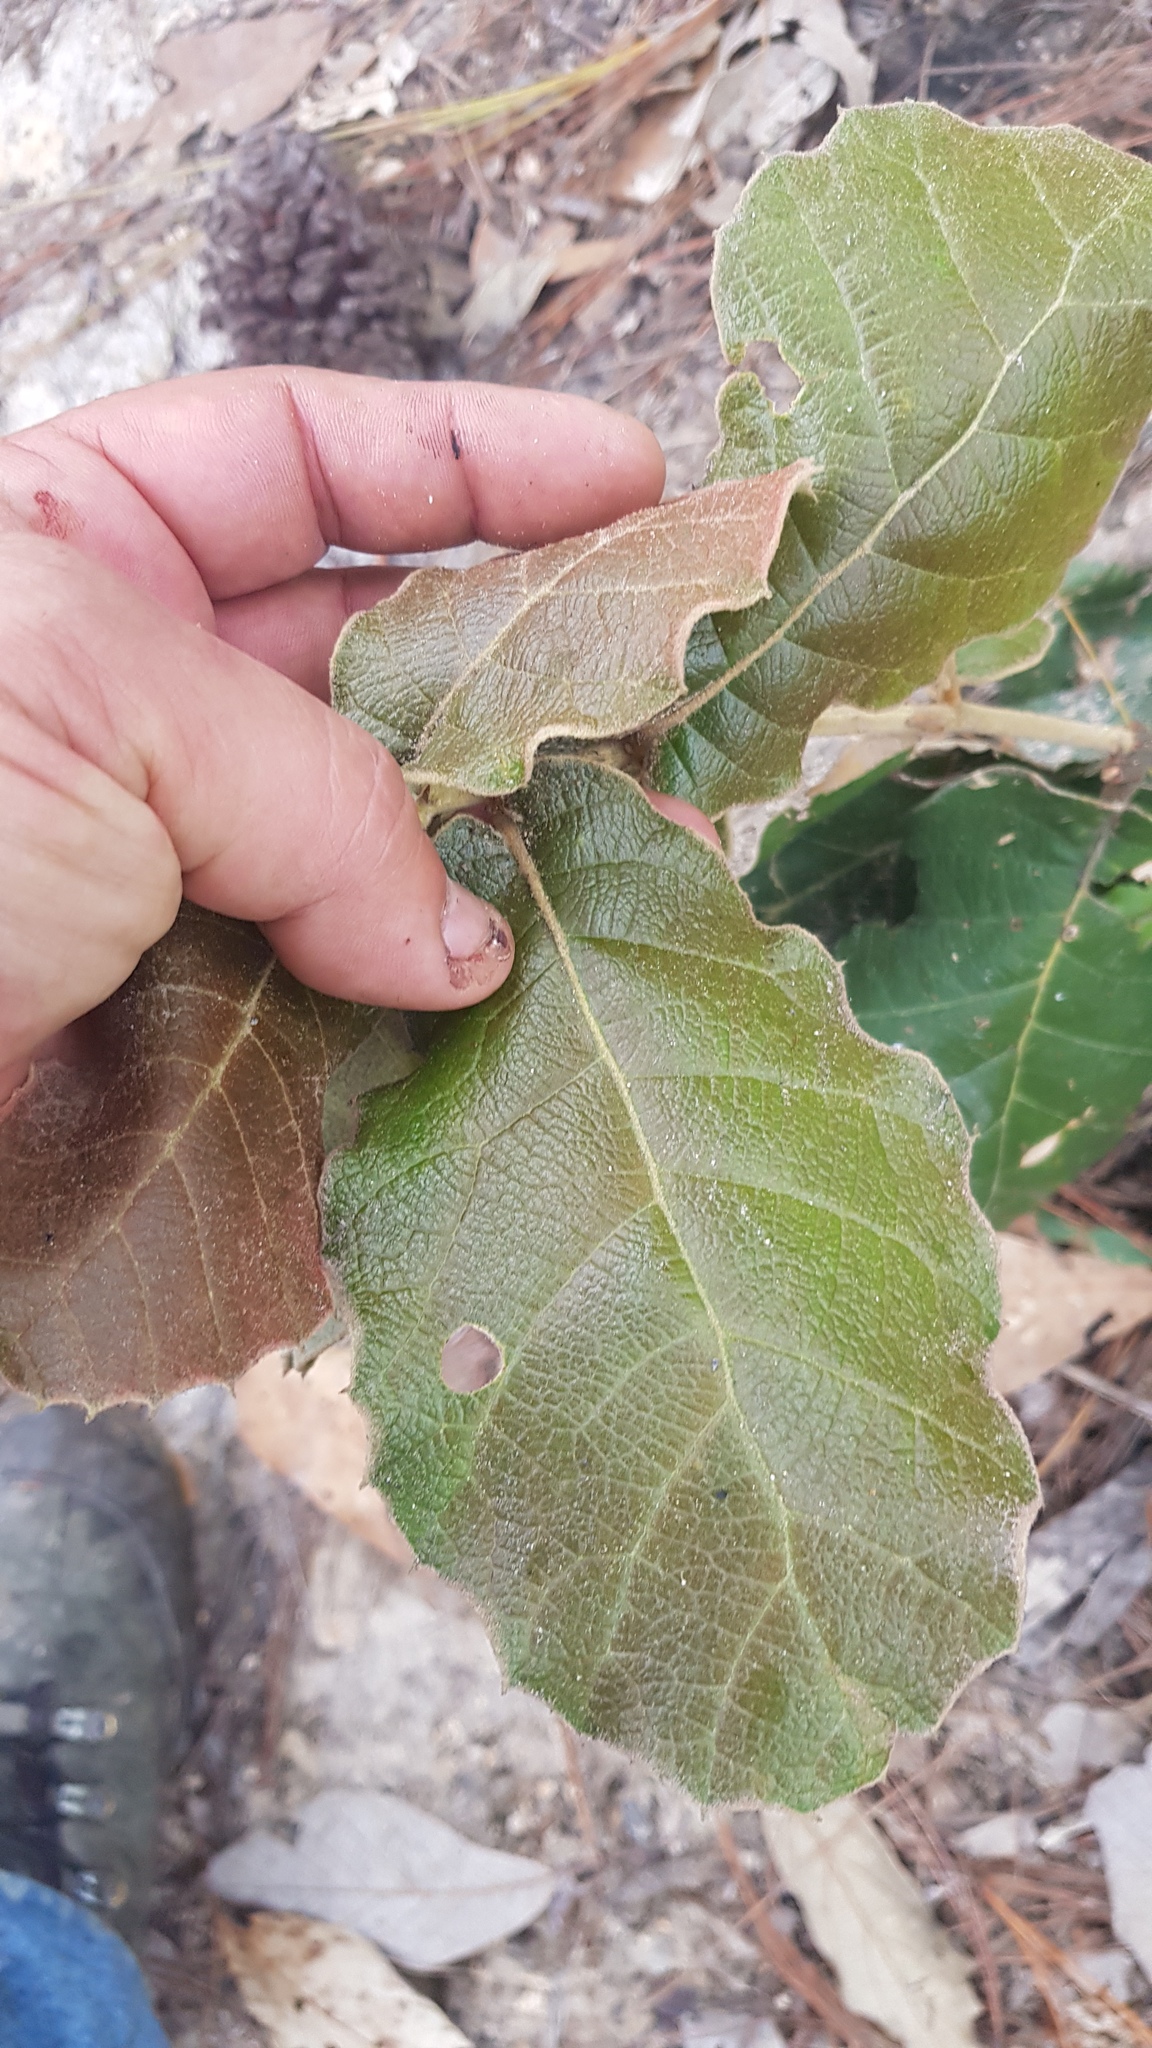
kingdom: Plantae
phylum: Tracheophyta
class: Magnoliopsida
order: Fagales
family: Fagaceae
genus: Quercus
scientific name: Quercus crassifolia
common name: Leather leaf mexican oak
